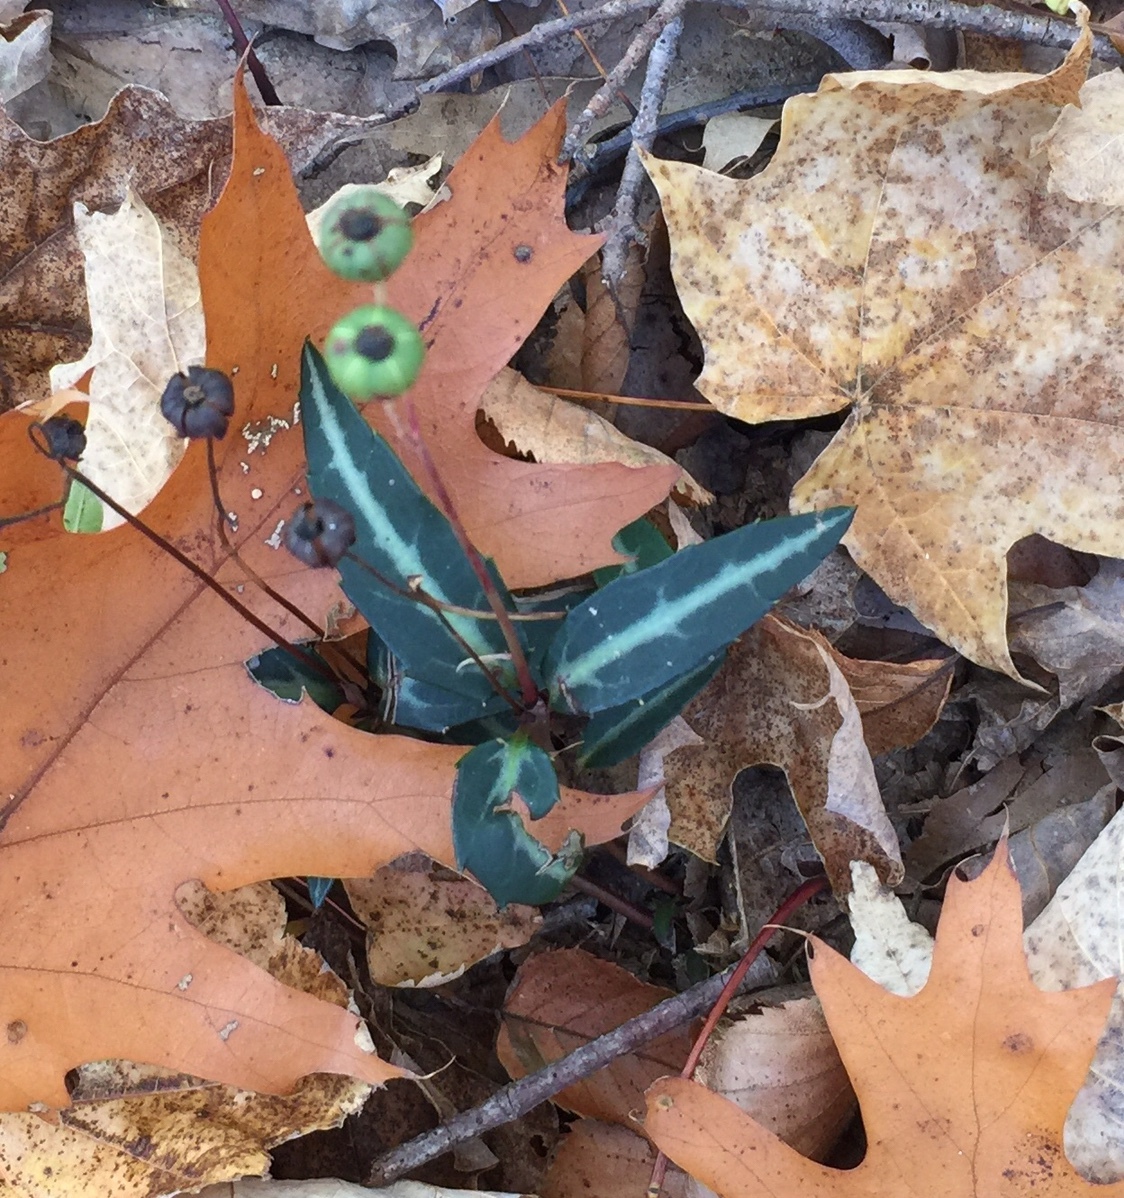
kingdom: Plantae
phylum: Tracheophyta
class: Magnoliopsida
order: Ericales
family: Ericaceae
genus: Chimaphila
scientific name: Chimaphila maculata
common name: Spotted pipsissewa
